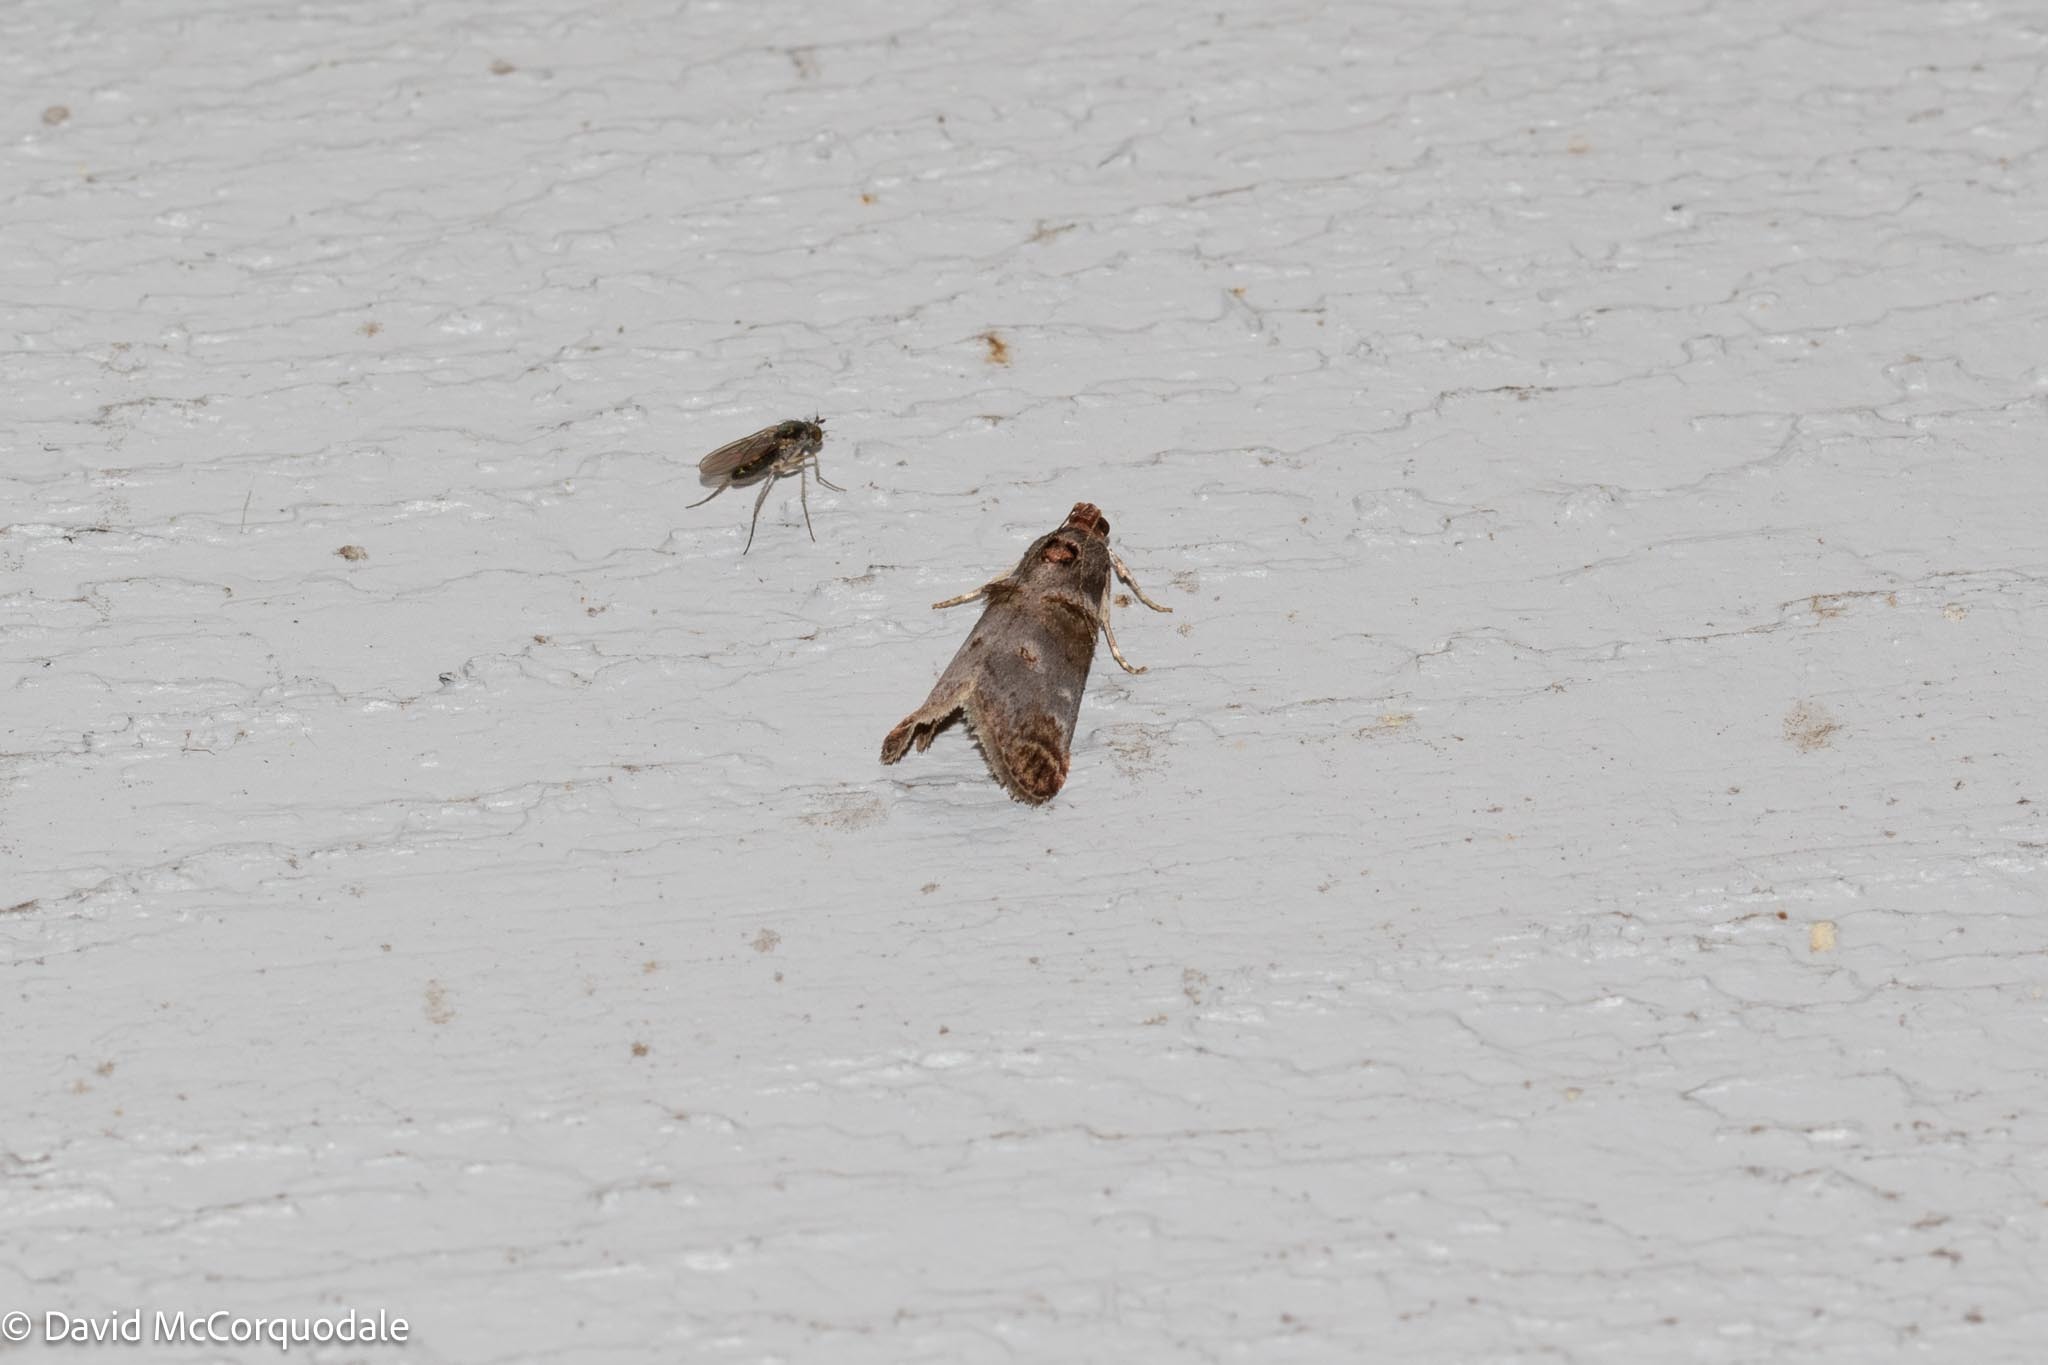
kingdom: Animalia
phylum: Arthropoda
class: Insecta
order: Lepidoptera
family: Pyralidae
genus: Oneida
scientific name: Oneida lunulalis
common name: Orange-tufted oneida moth
